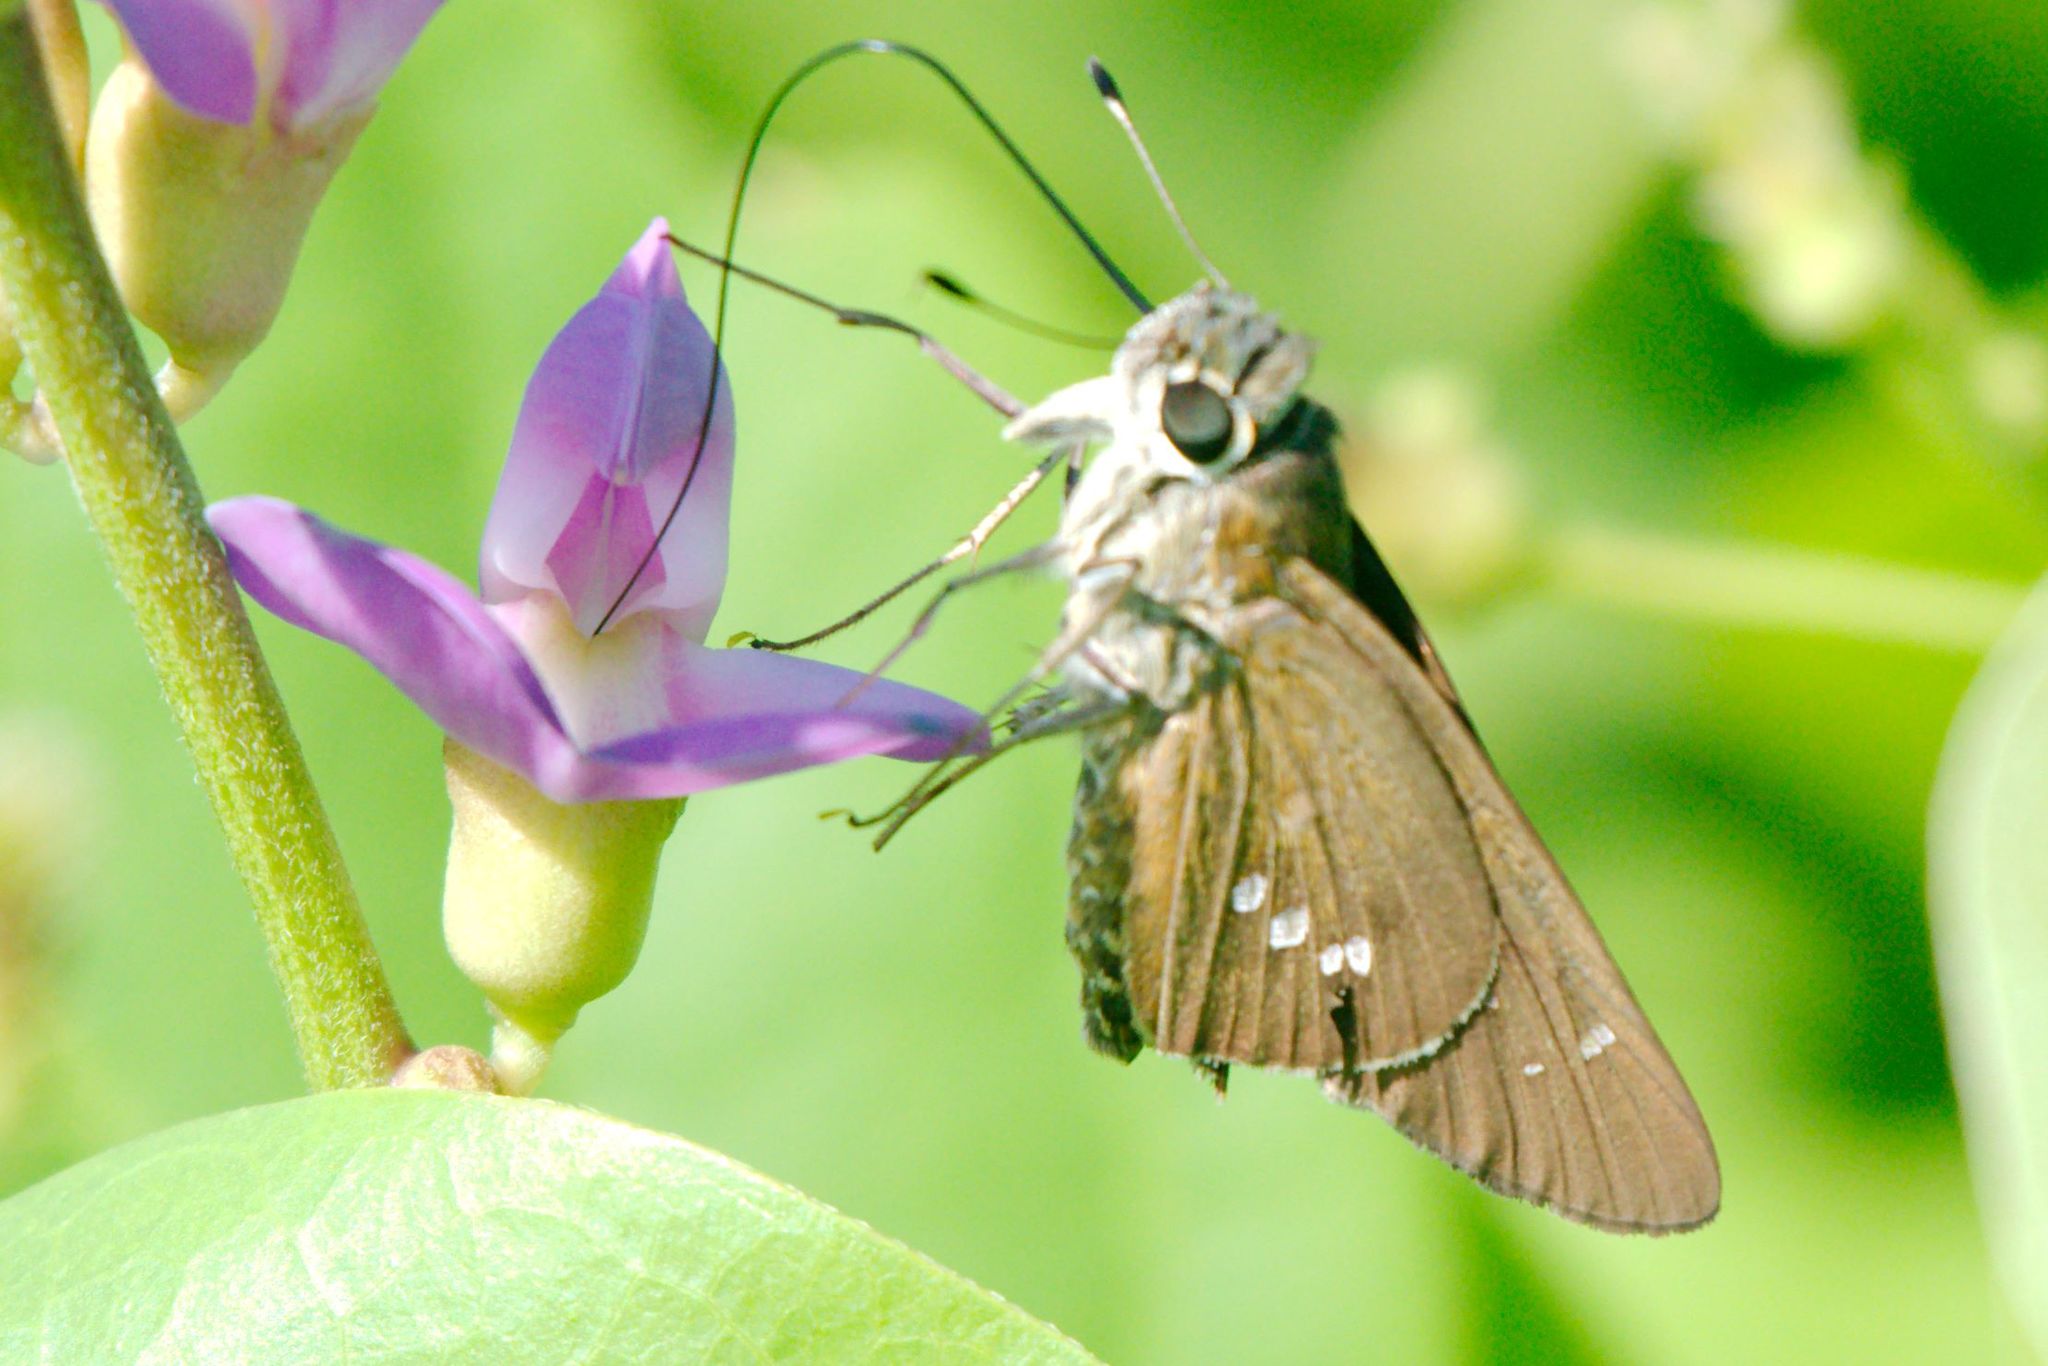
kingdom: Animalia
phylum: Arthropoda
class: Insecta
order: Lepidoptera
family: Hesperiidae
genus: Calpodes
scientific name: Calpodes ethlius
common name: Brazilian skipper
